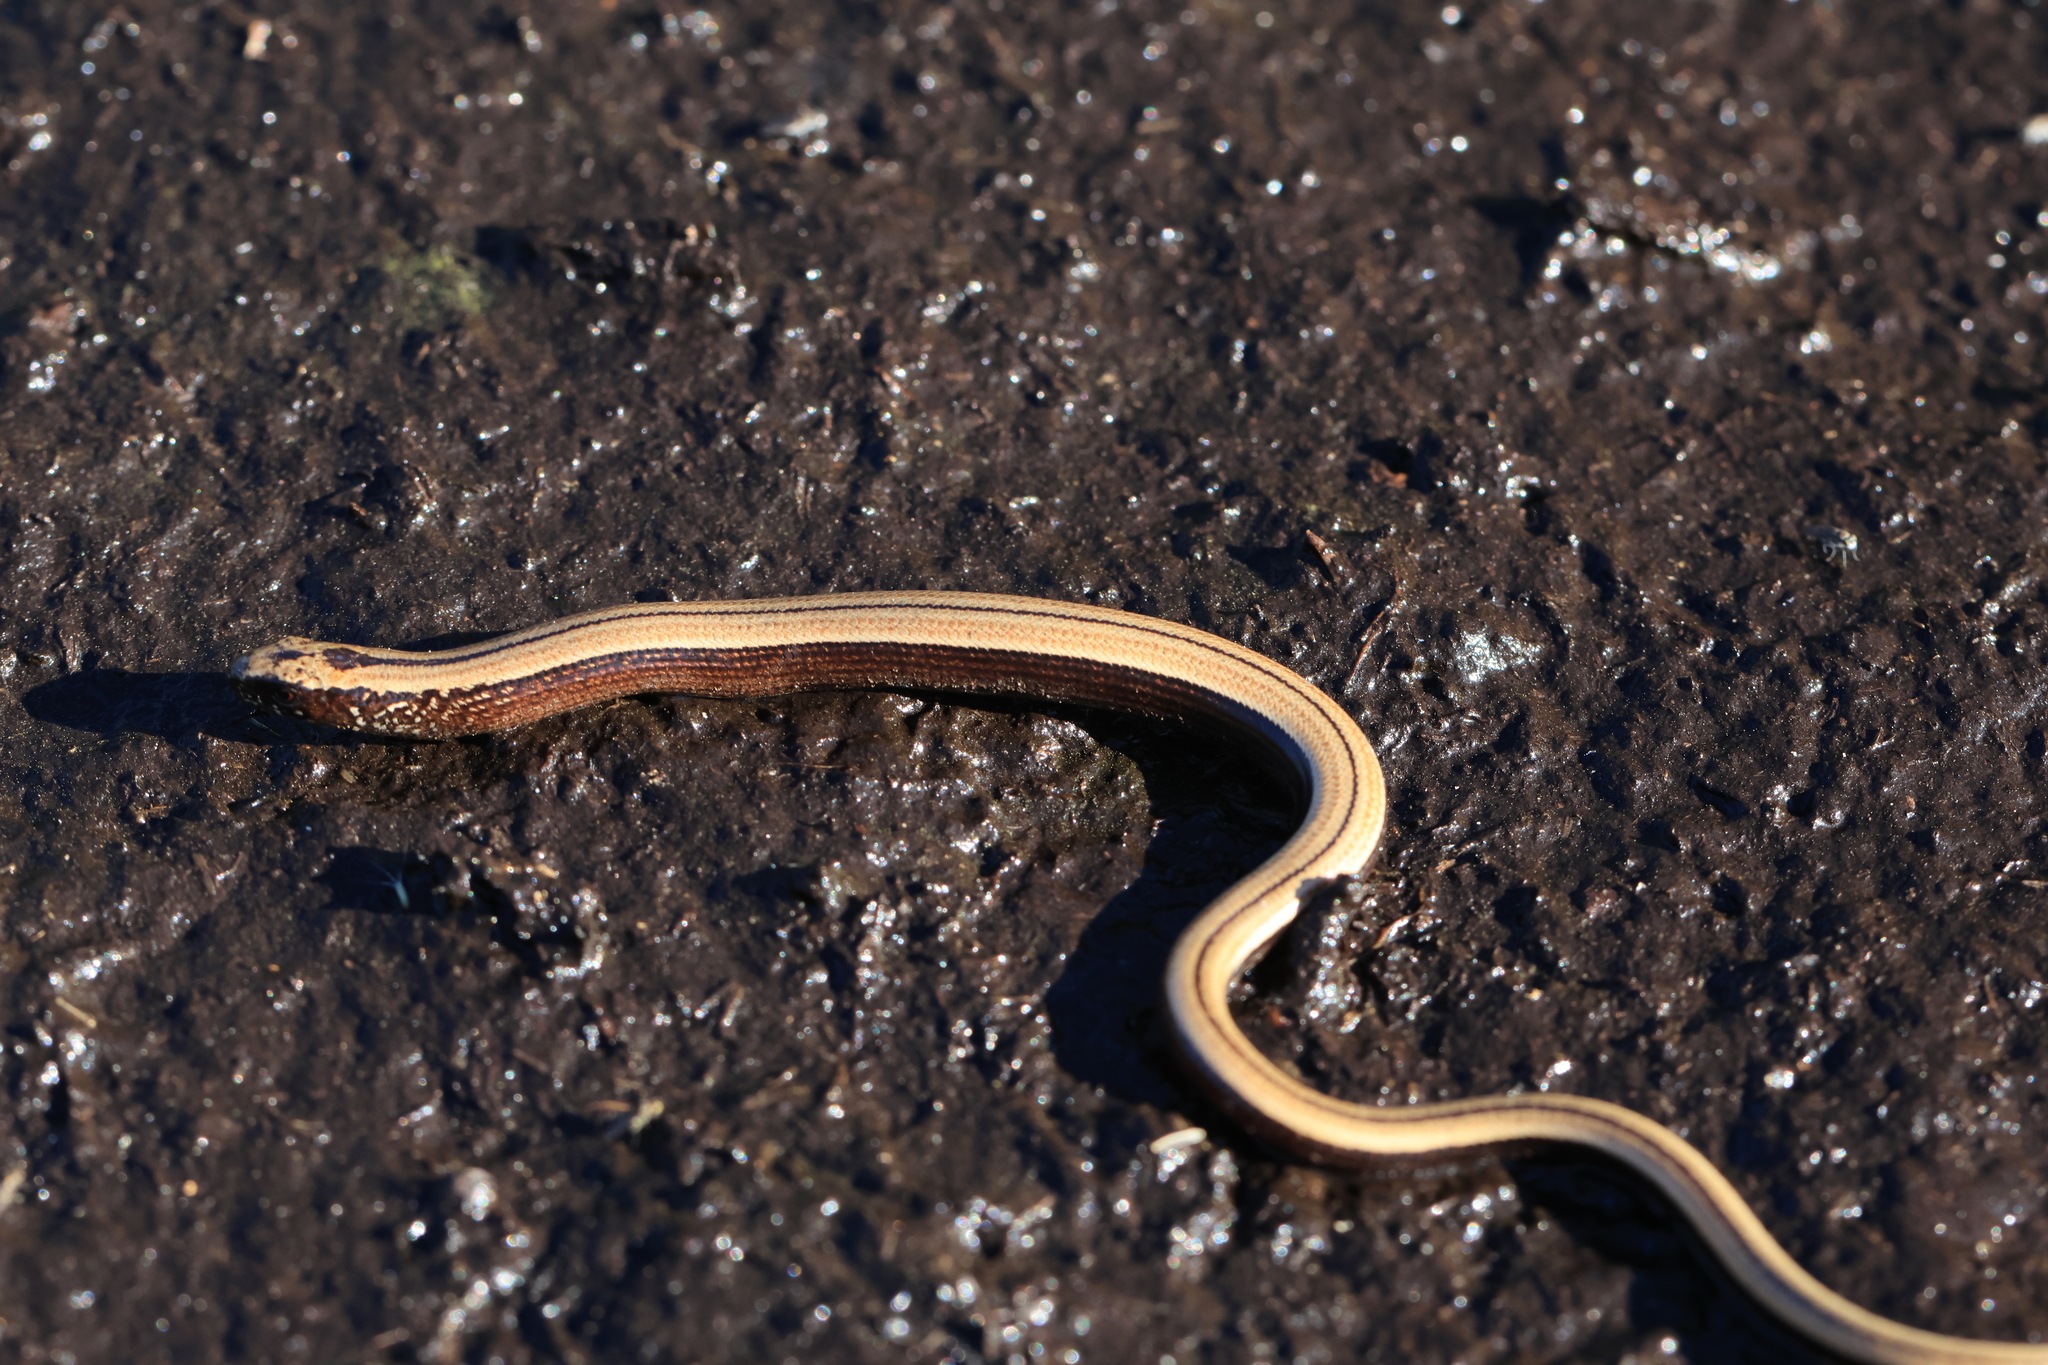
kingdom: Animalia
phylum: Chordata
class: Squamata
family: Anguidae
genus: Anguis
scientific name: Anguis fragilis
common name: Slow worm
